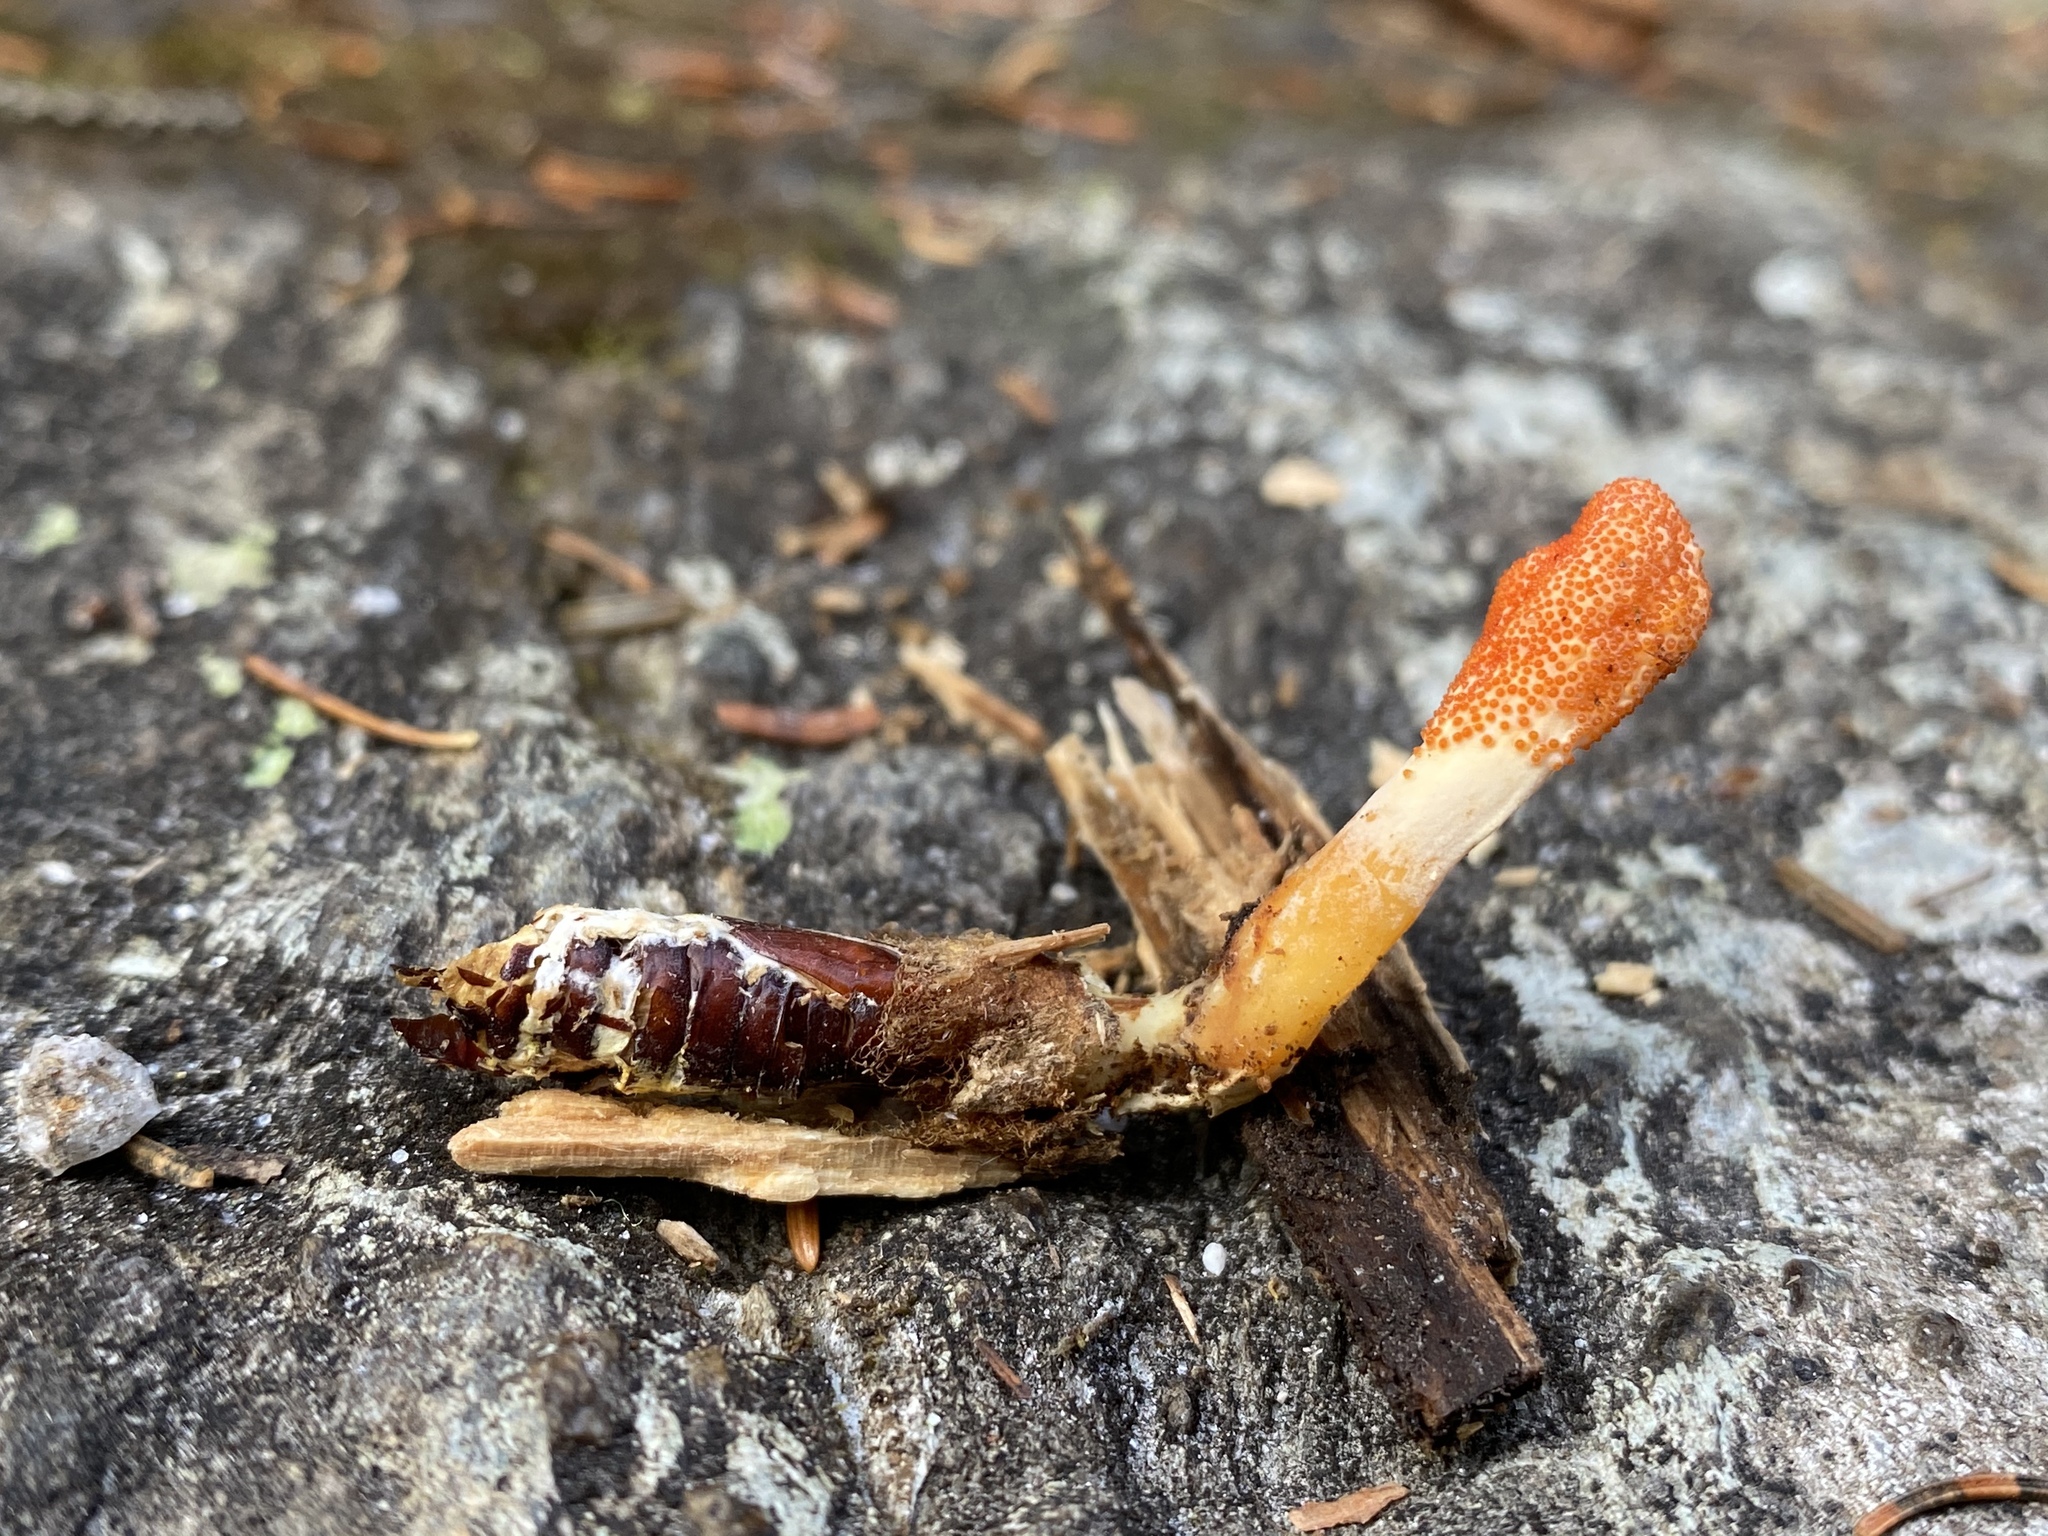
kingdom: Fungi
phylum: Ascomycota
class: Sordariomycetes
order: Hypocreales
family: Cordycipitaceae
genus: Cordyceps
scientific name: Cordyceps militaris
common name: Scarlet caterpillar fungus
